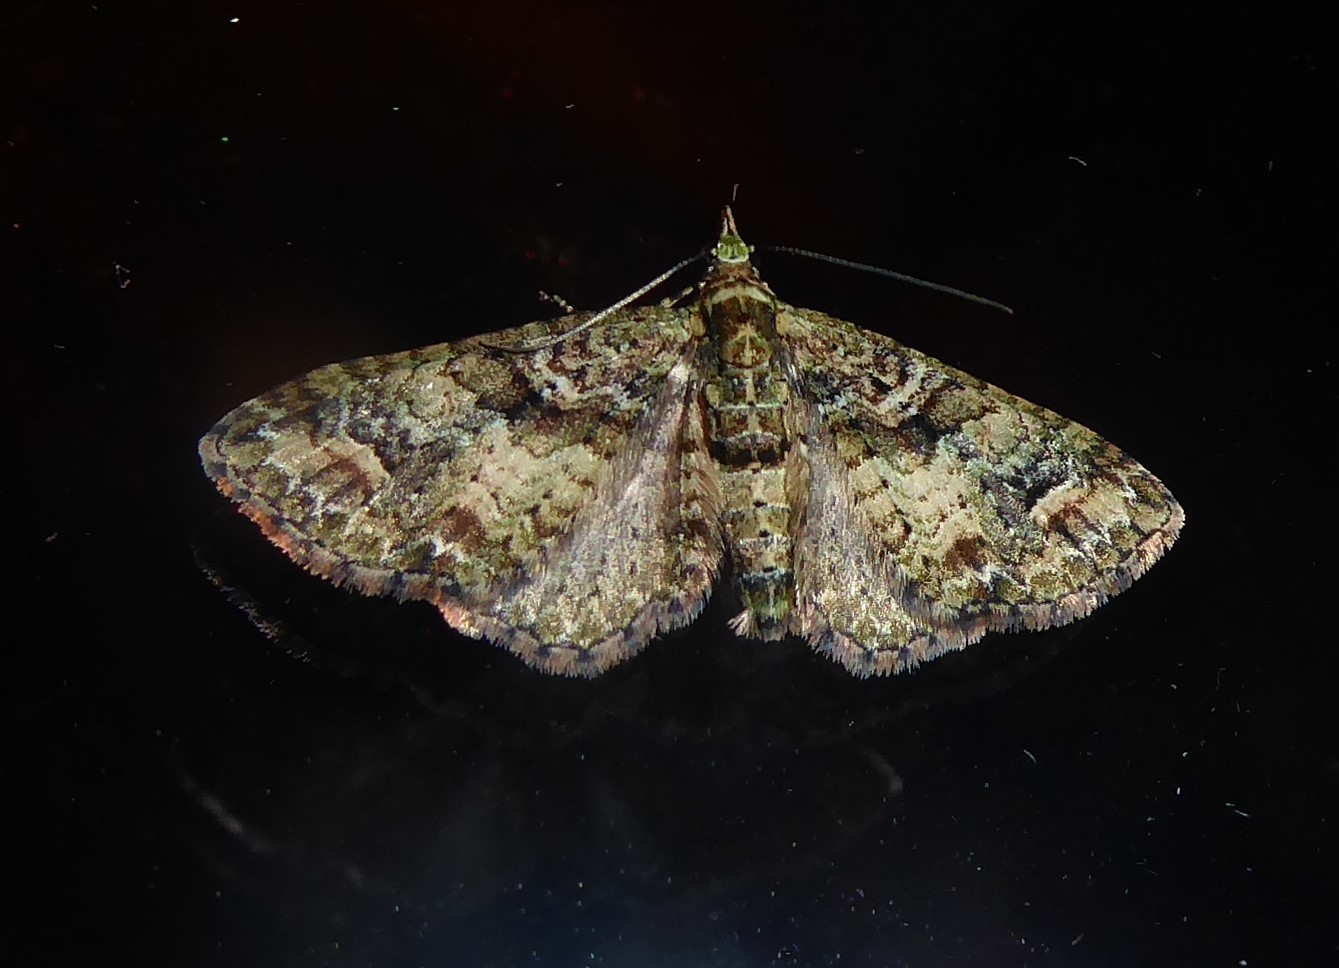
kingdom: Animalia
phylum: Arthropoda
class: Insecta
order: Lepidoptera
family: Geometridae
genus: Idaea
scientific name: Idaea mutanda
